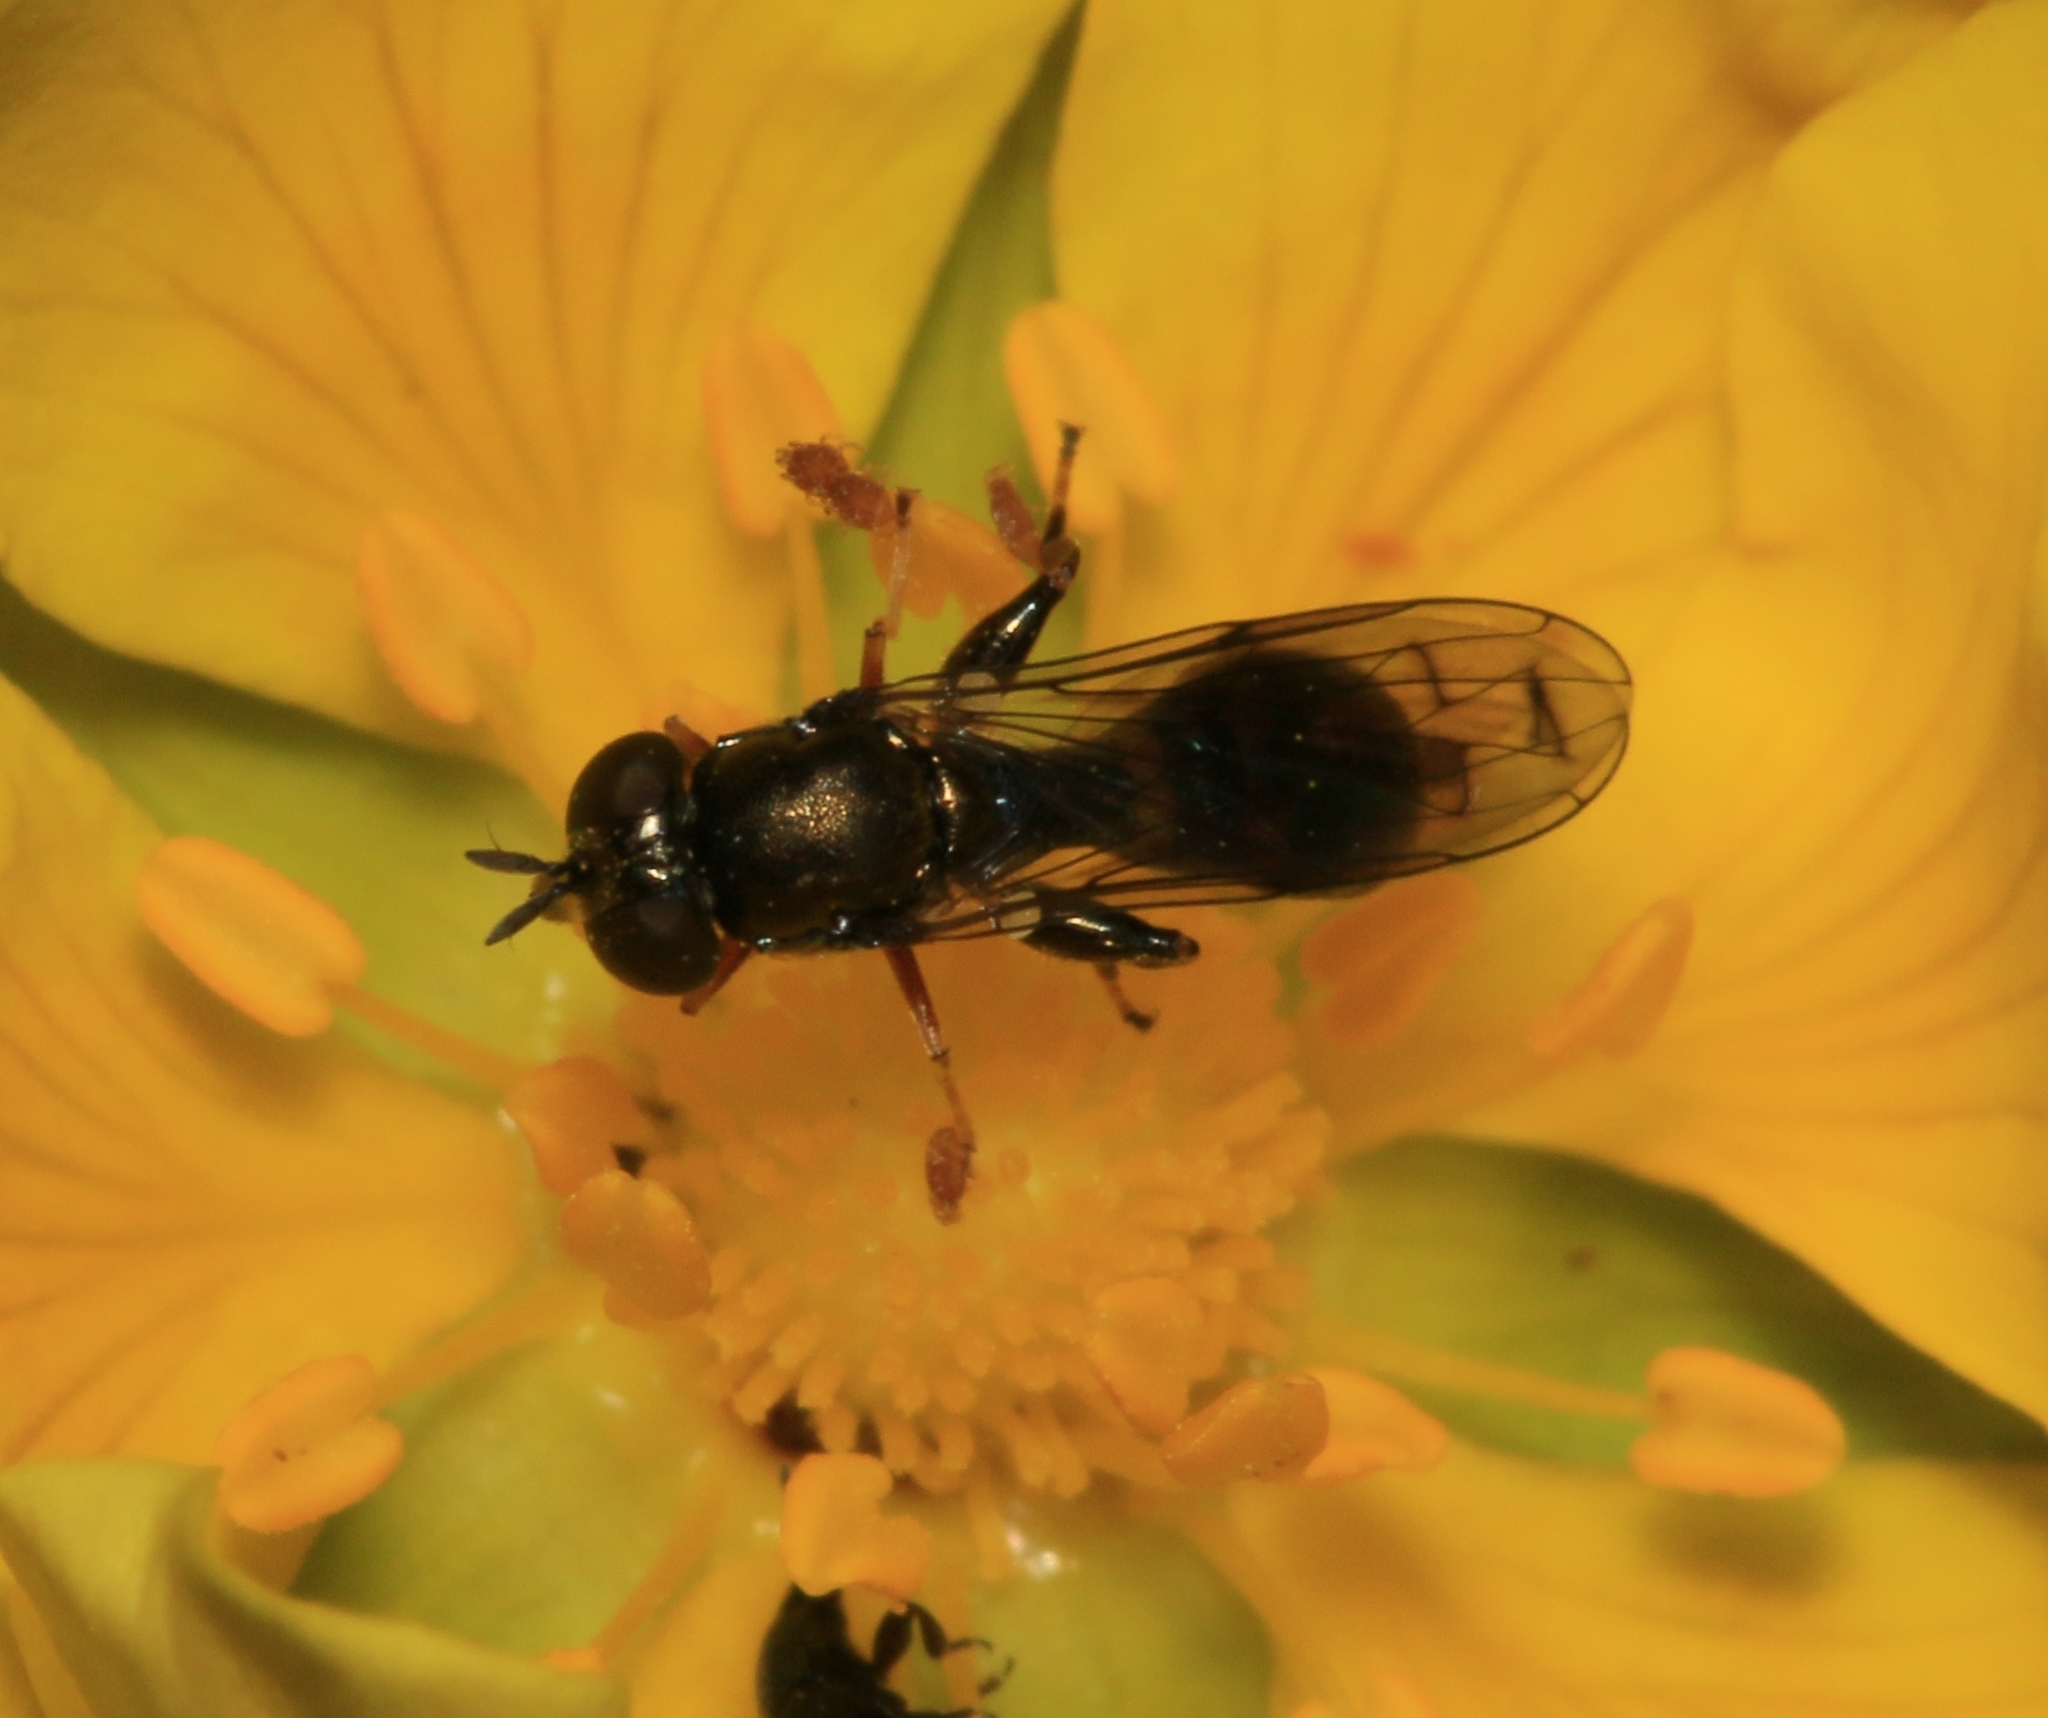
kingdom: Animalia
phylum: Arthropoda
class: Insecta
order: Diptera
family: Syrphidae
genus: Neoascia
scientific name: Neoascia podagrica
